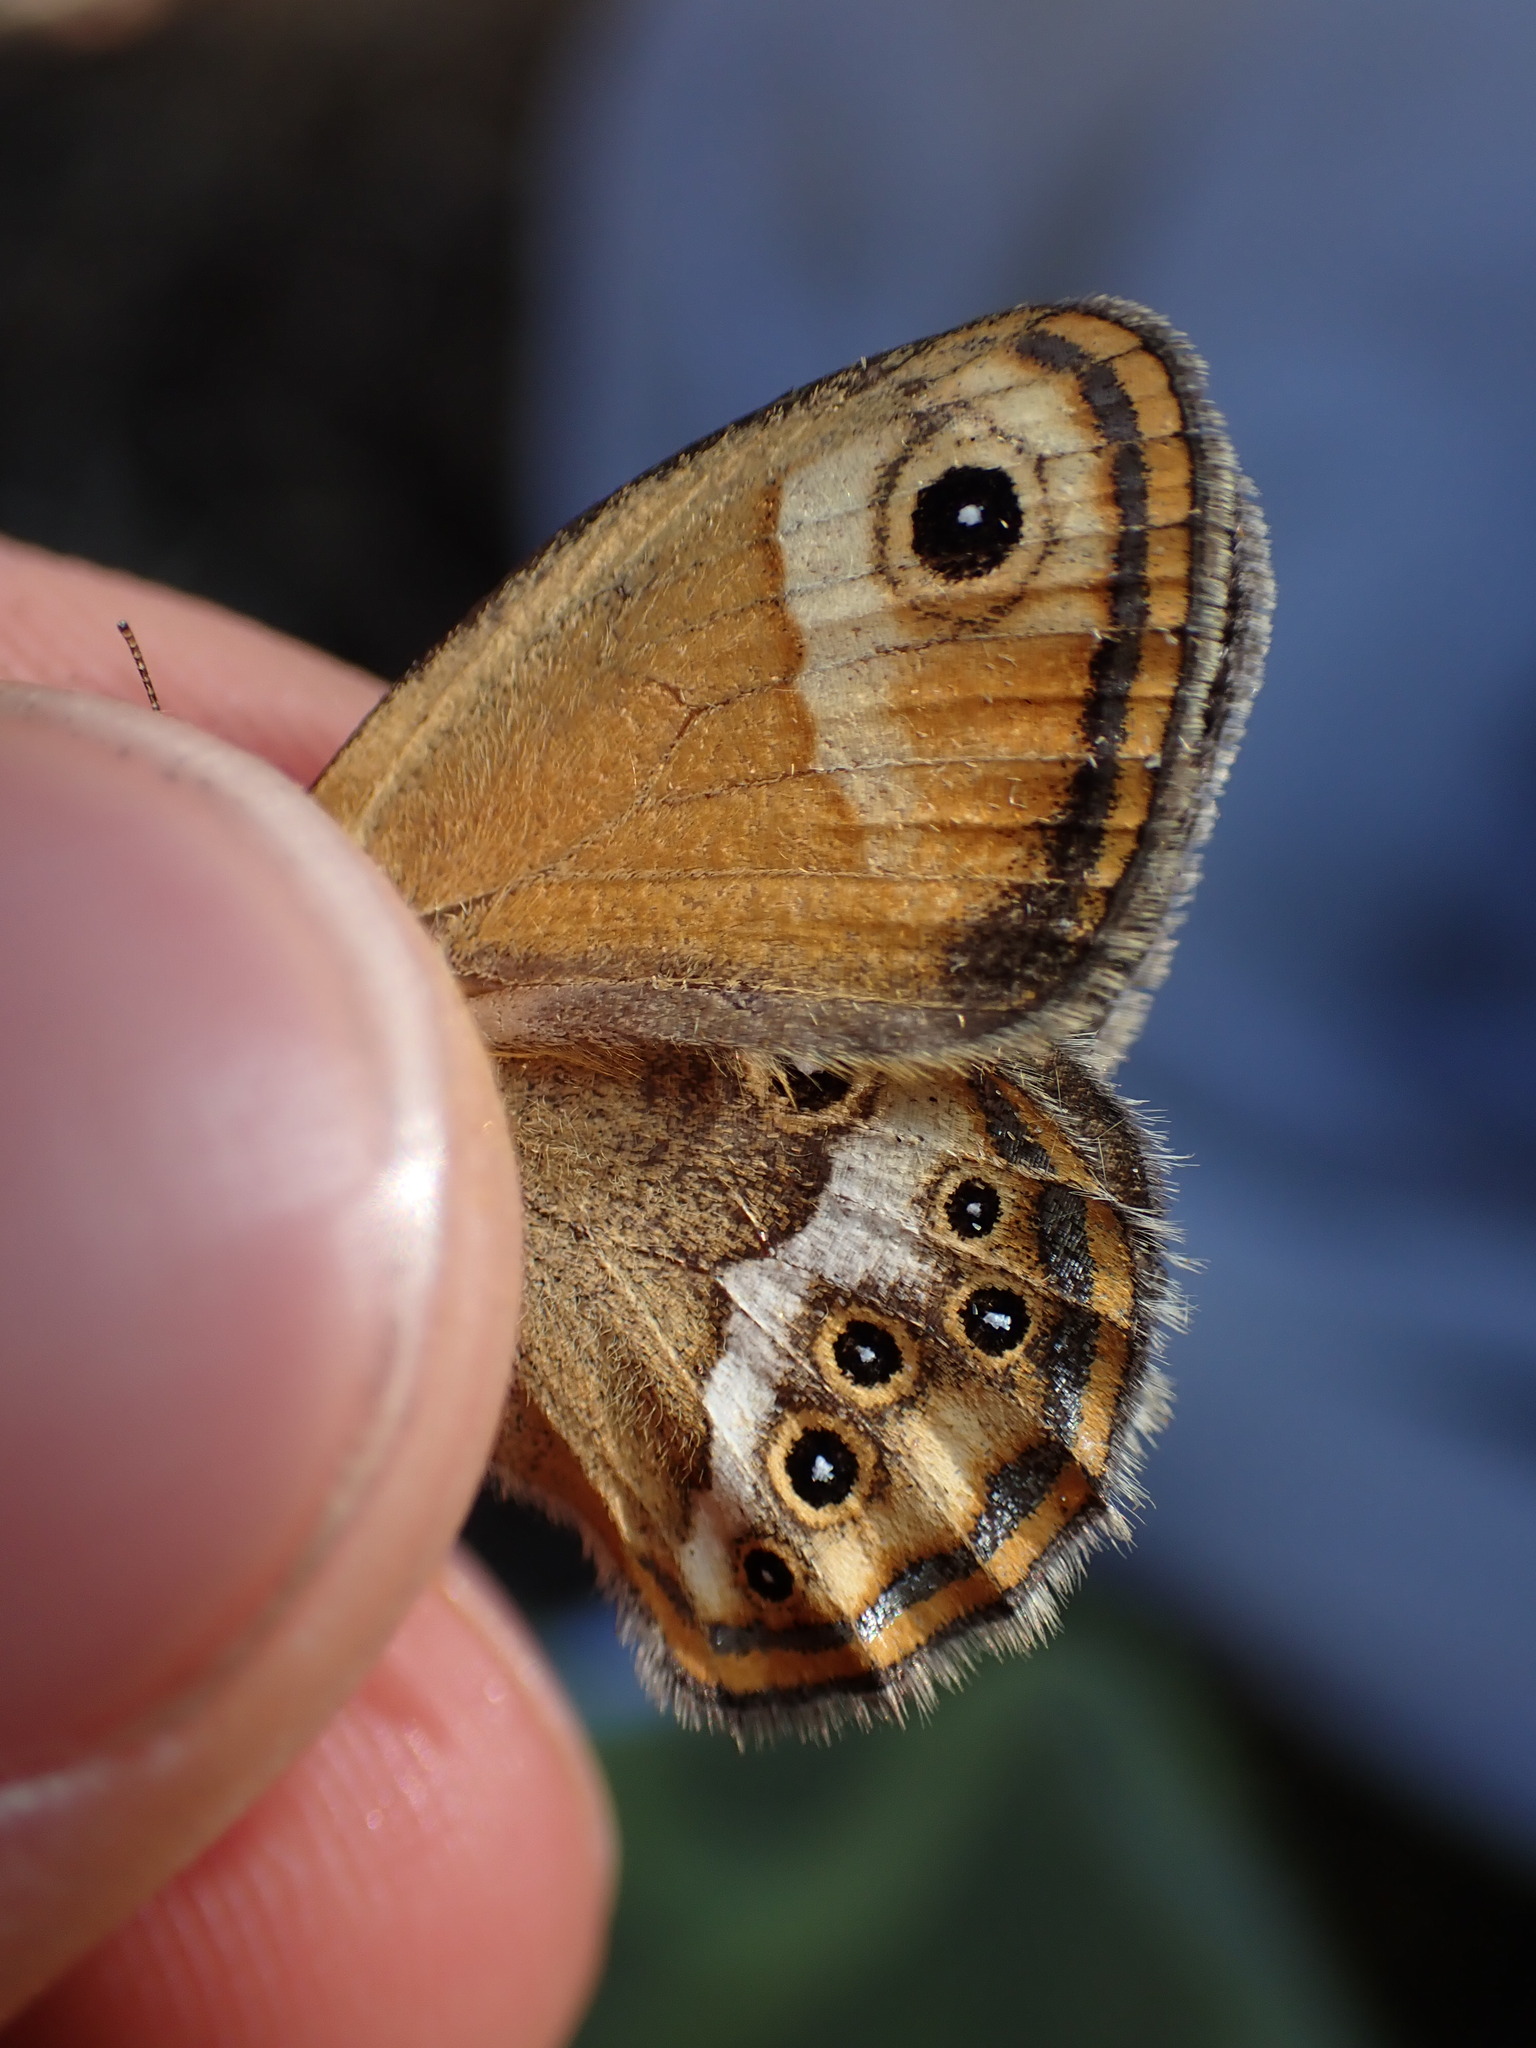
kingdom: Animalia
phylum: Arthropoda
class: Insecta
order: Lepidoptera
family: Nymphalidae
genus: Coenonympha
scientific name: Coenonympha dorus
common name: Dusky heath
